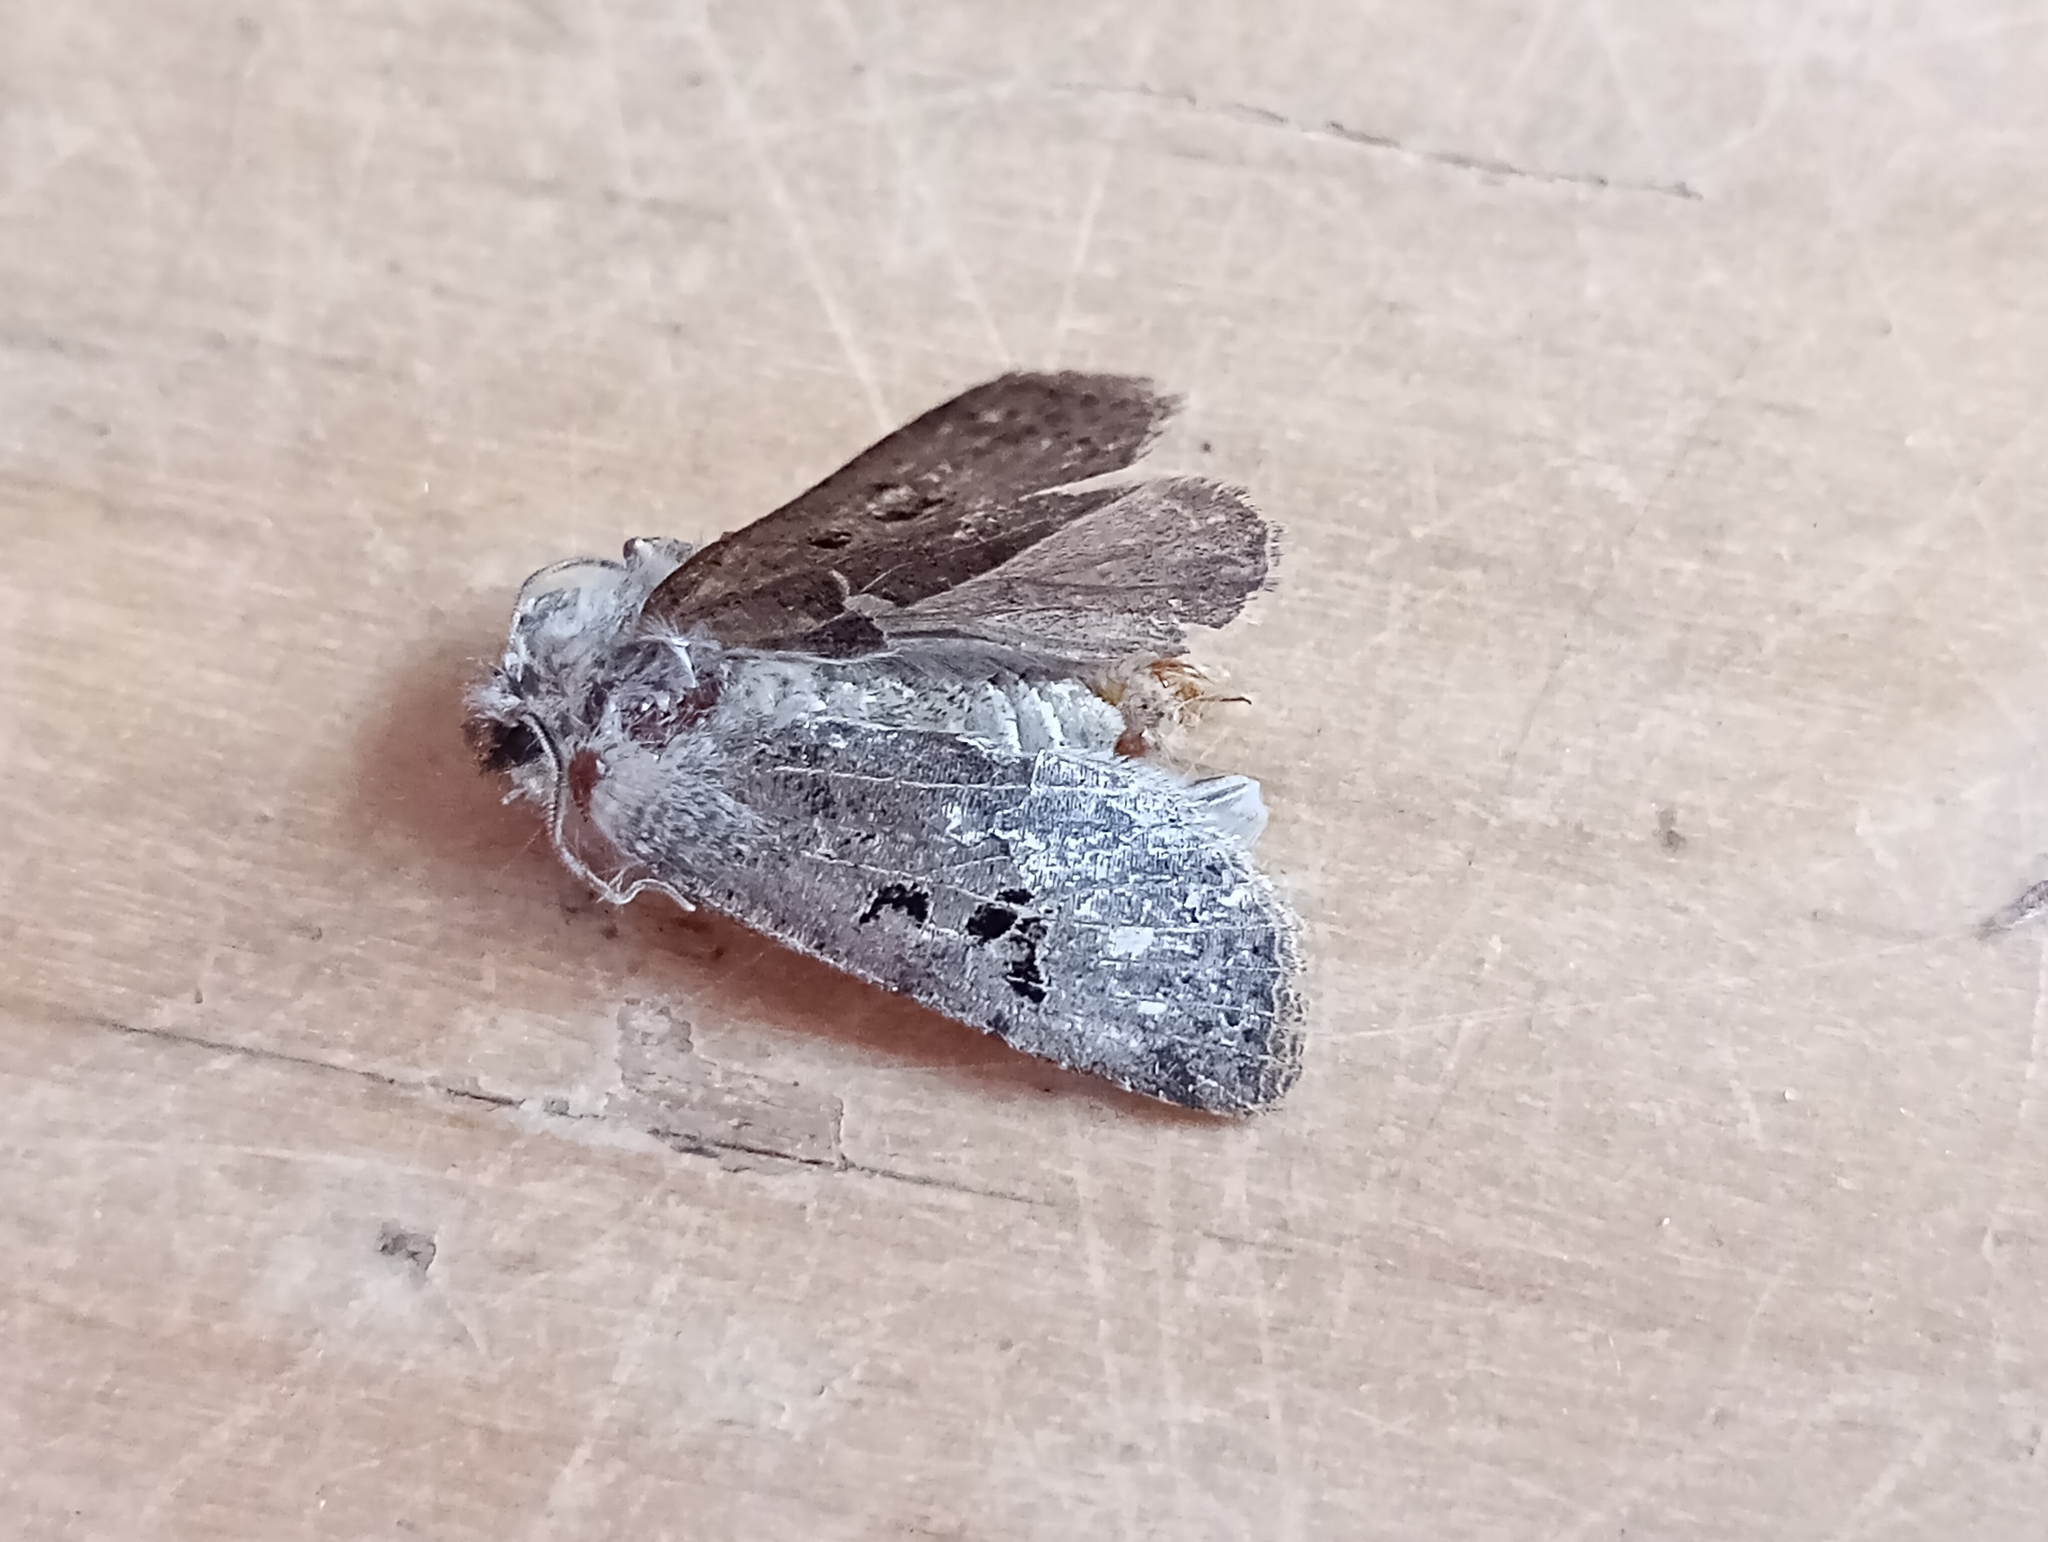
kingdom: Animalia
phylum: Arthropoda
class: Insecta
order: Lepidoptera
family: Noctuidae
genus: Conistra
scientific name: Conistra rubiginosa
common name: Black-spotted chestnut
